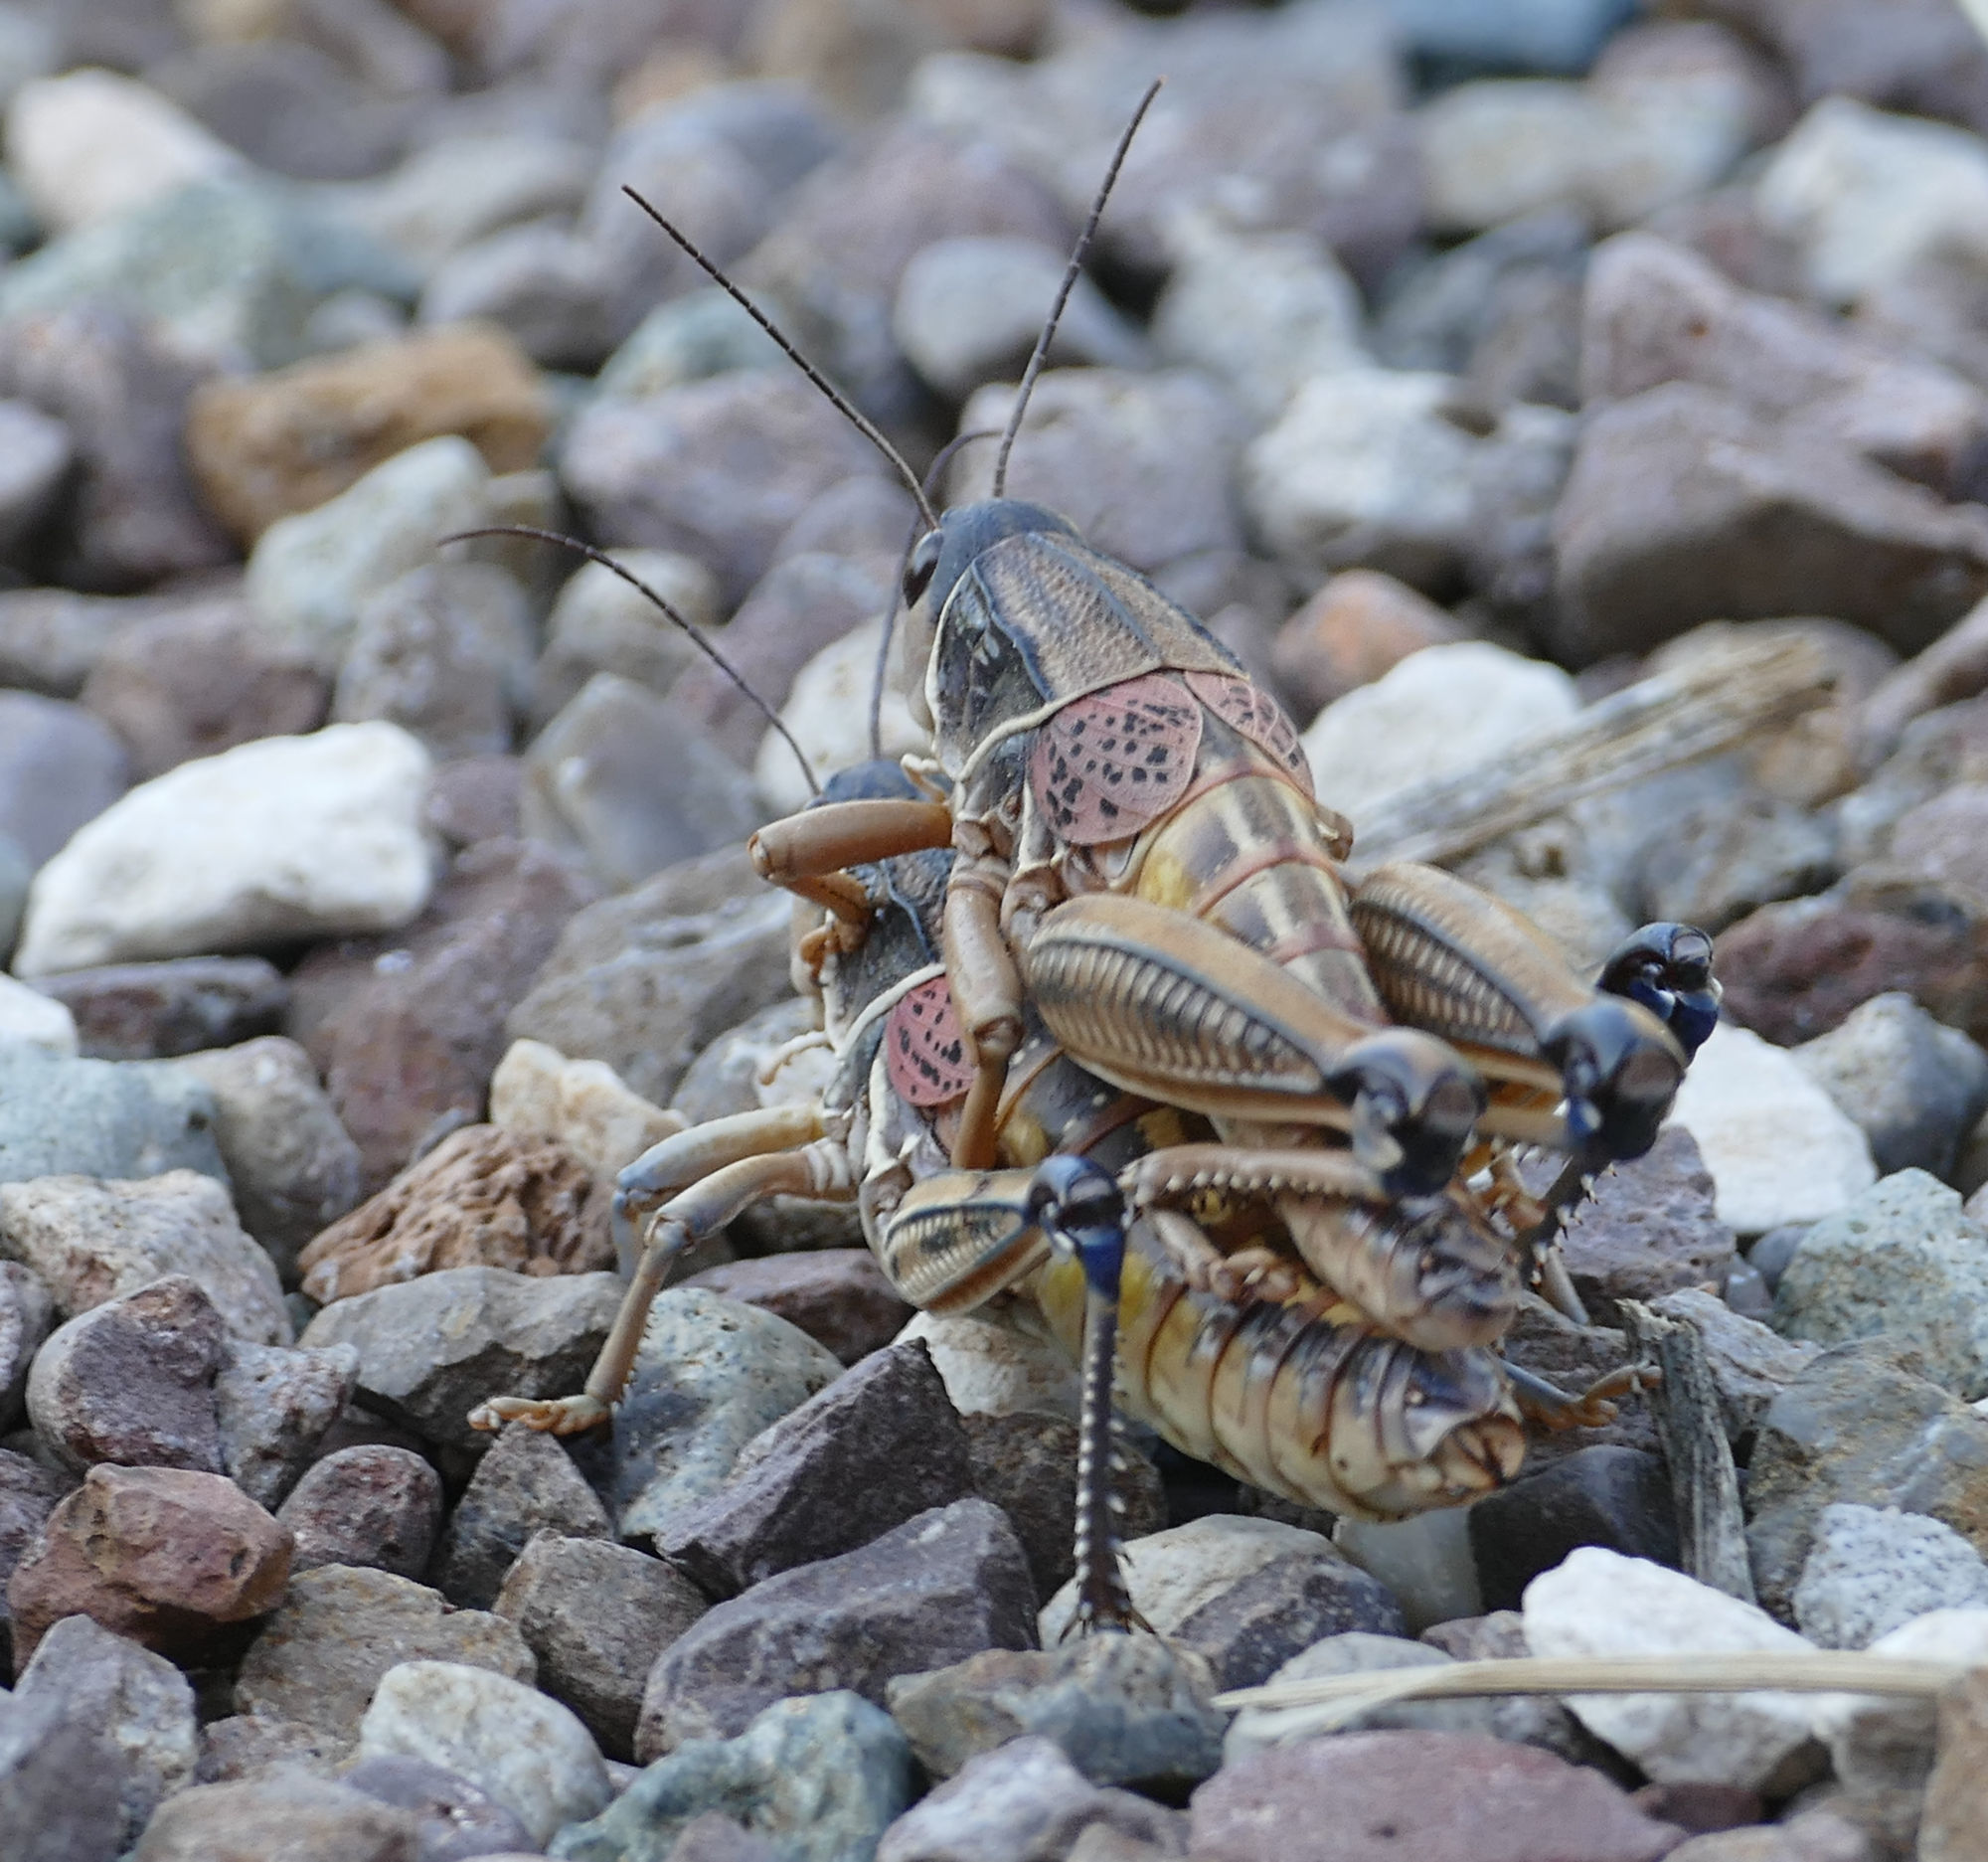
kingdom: Animalia
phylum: Arthropoda
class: Insecta
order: Orthoptera
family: Romaleidae
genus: Brachystola
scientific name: Brachystola magna
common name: Plains lubber grasshopper
